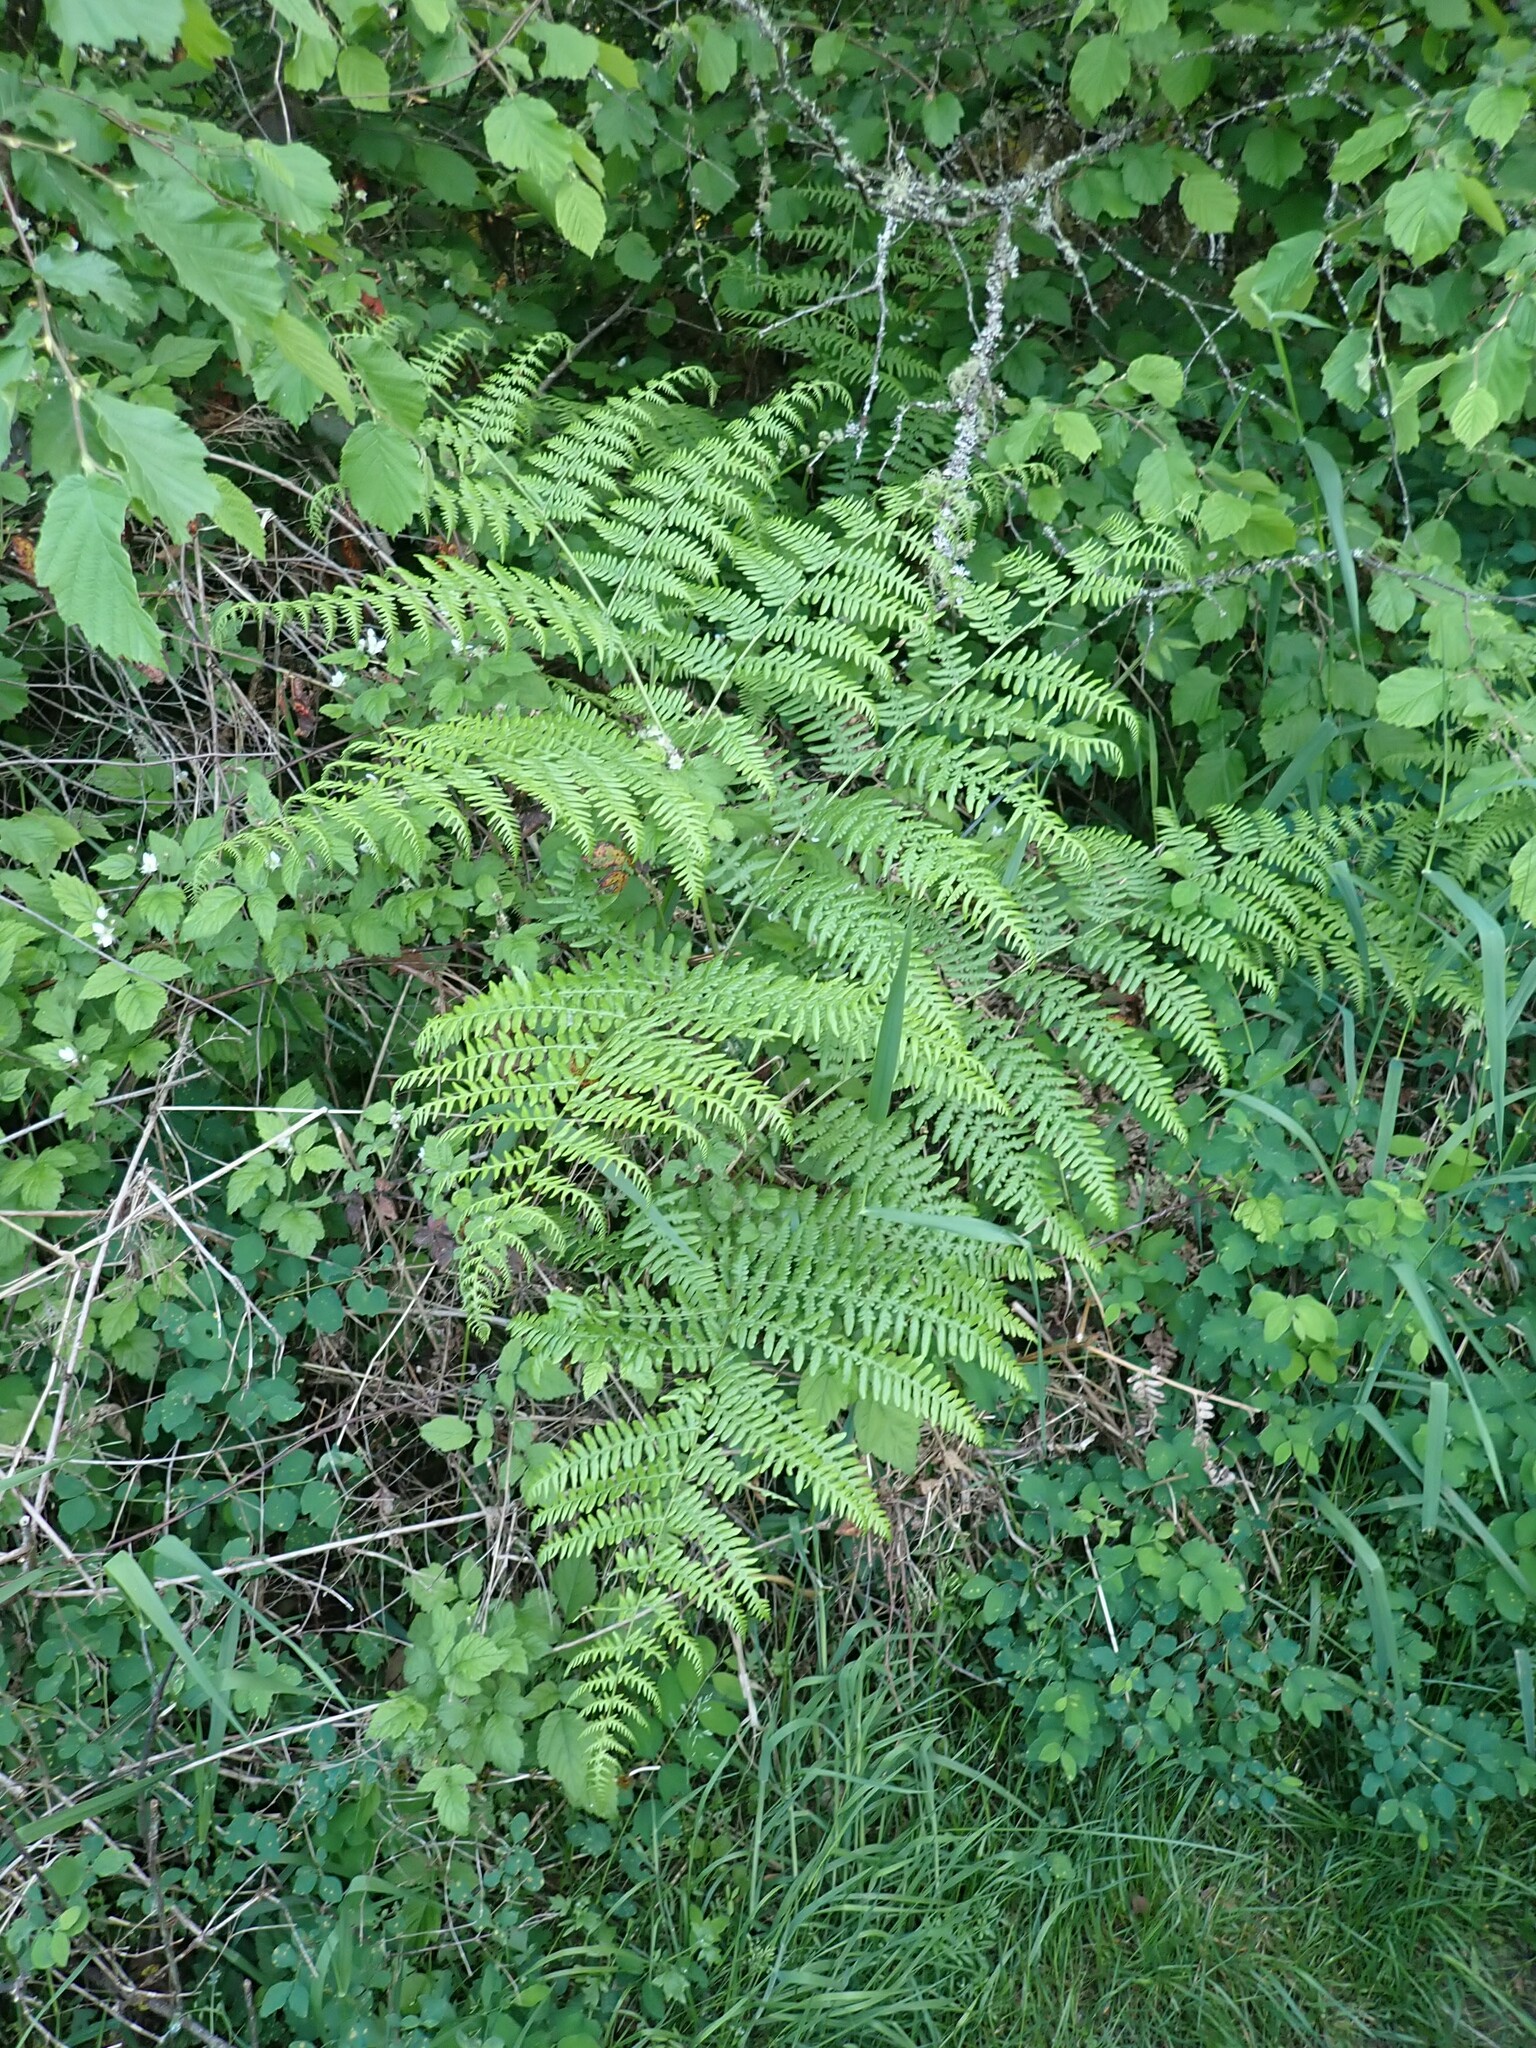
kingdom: Plantae
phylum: Tracheophyta
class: Polypodiopsida
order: Polypodiales
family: Dennstaedtiaceae
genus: Pteridium
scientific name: Pteridium aquilinum
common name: Bracken
